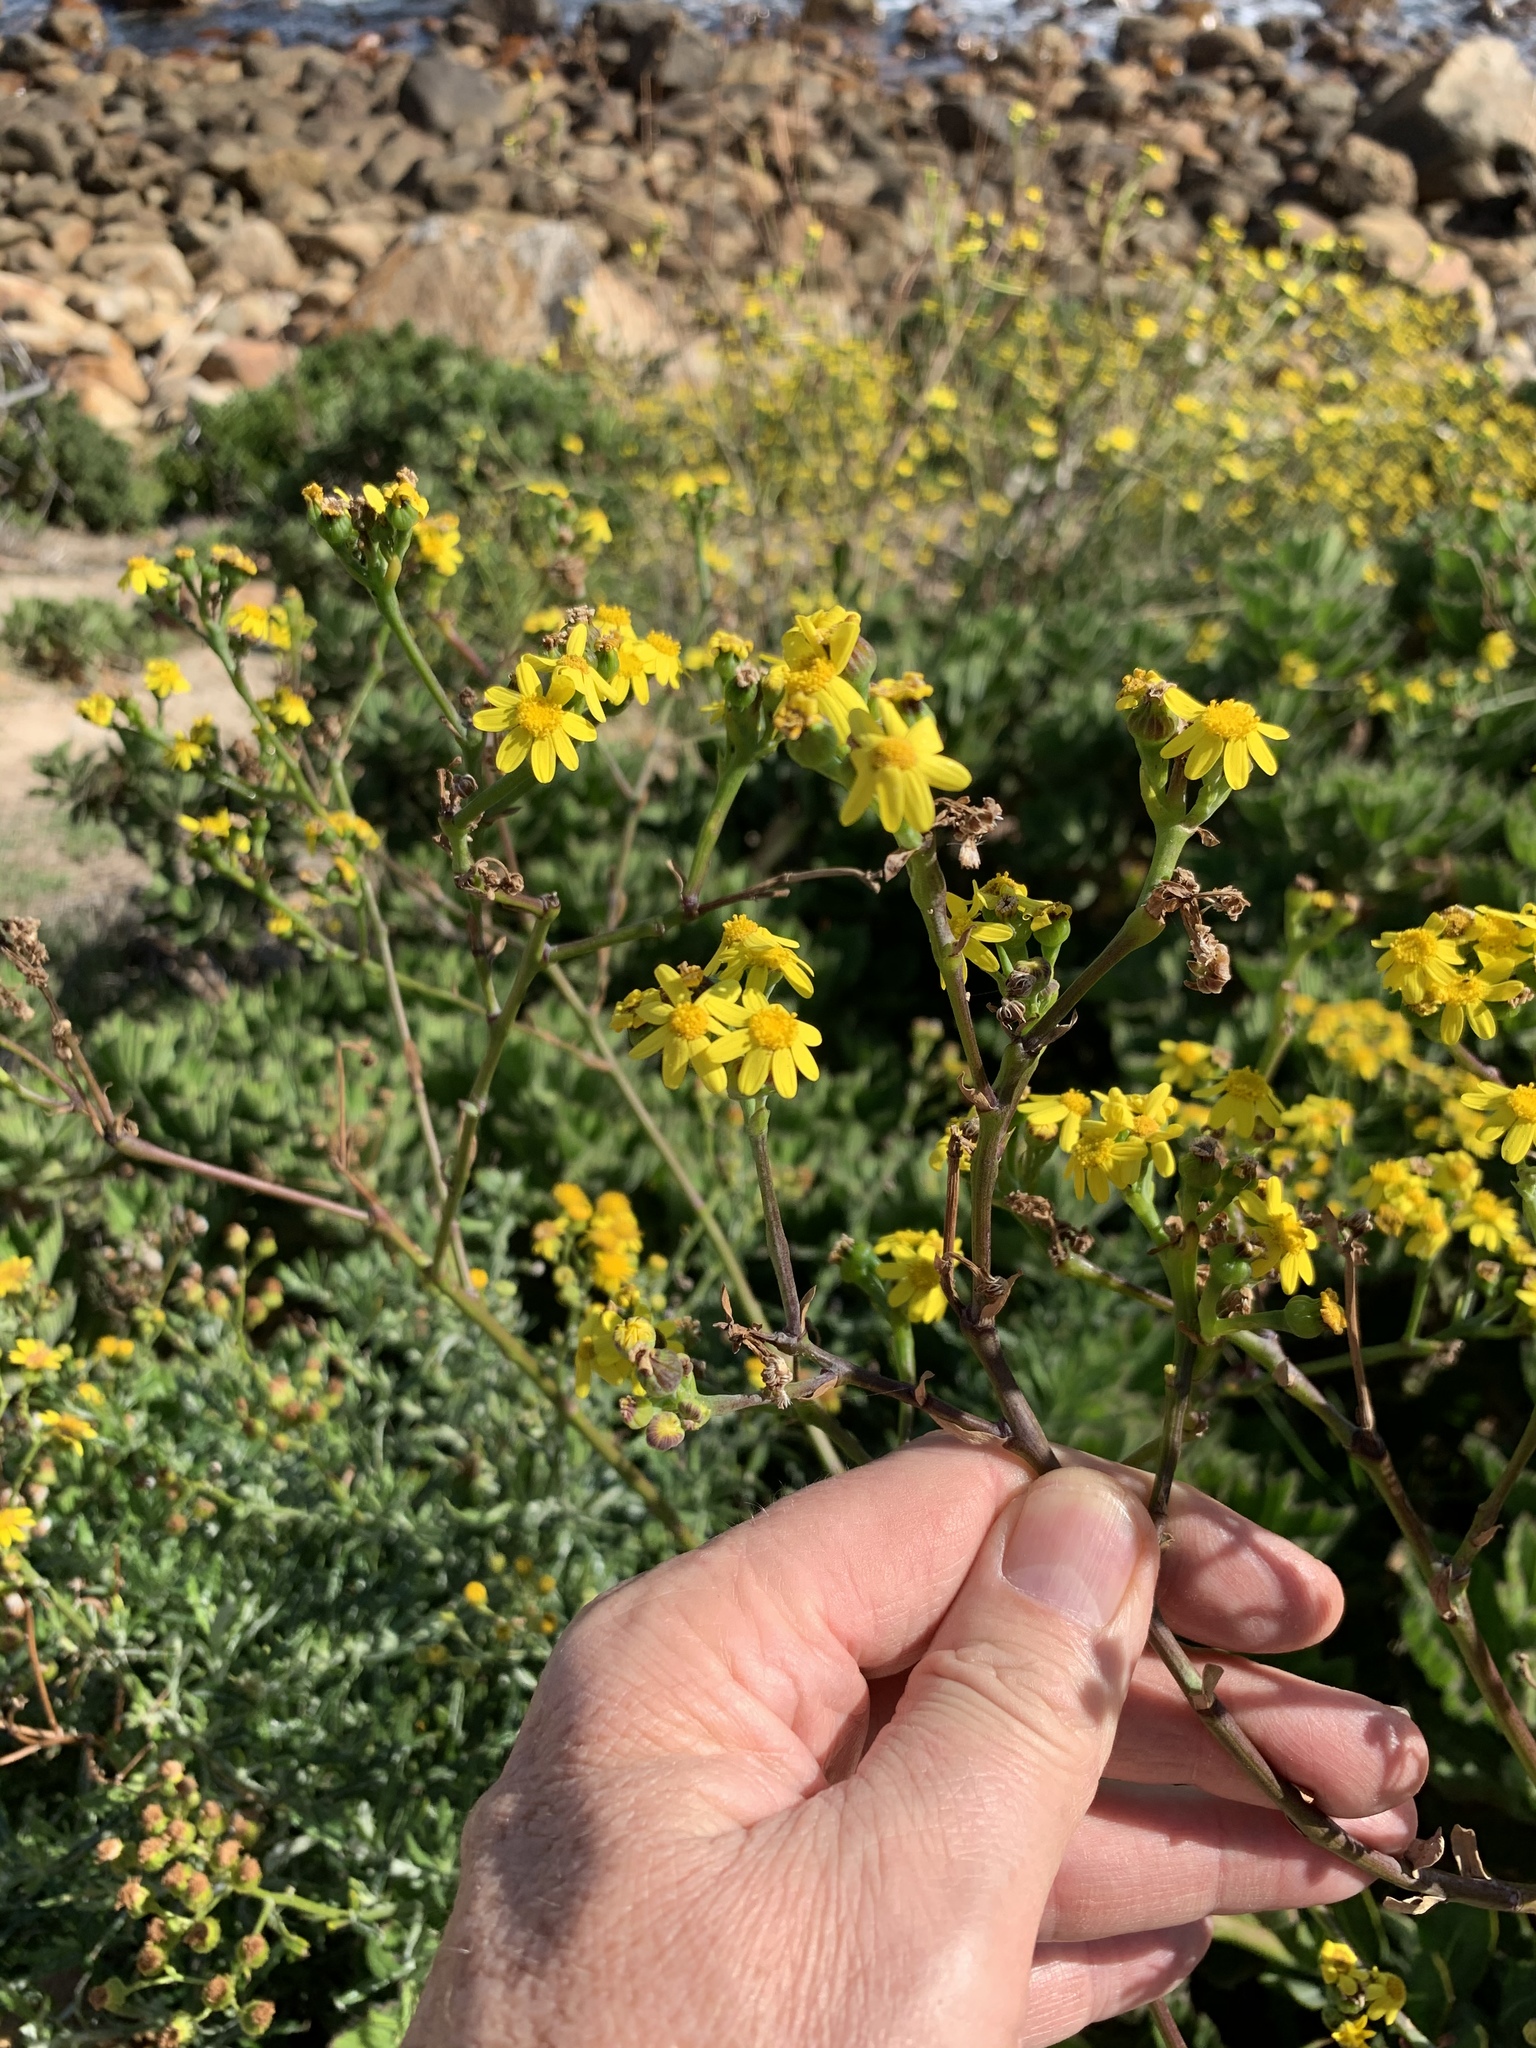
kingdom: Plantae
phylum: Tracheophyta
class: Magnoliopsida
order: Asterales
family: Asteraceae
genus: Othonna
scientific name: Othonna quinquedentata
